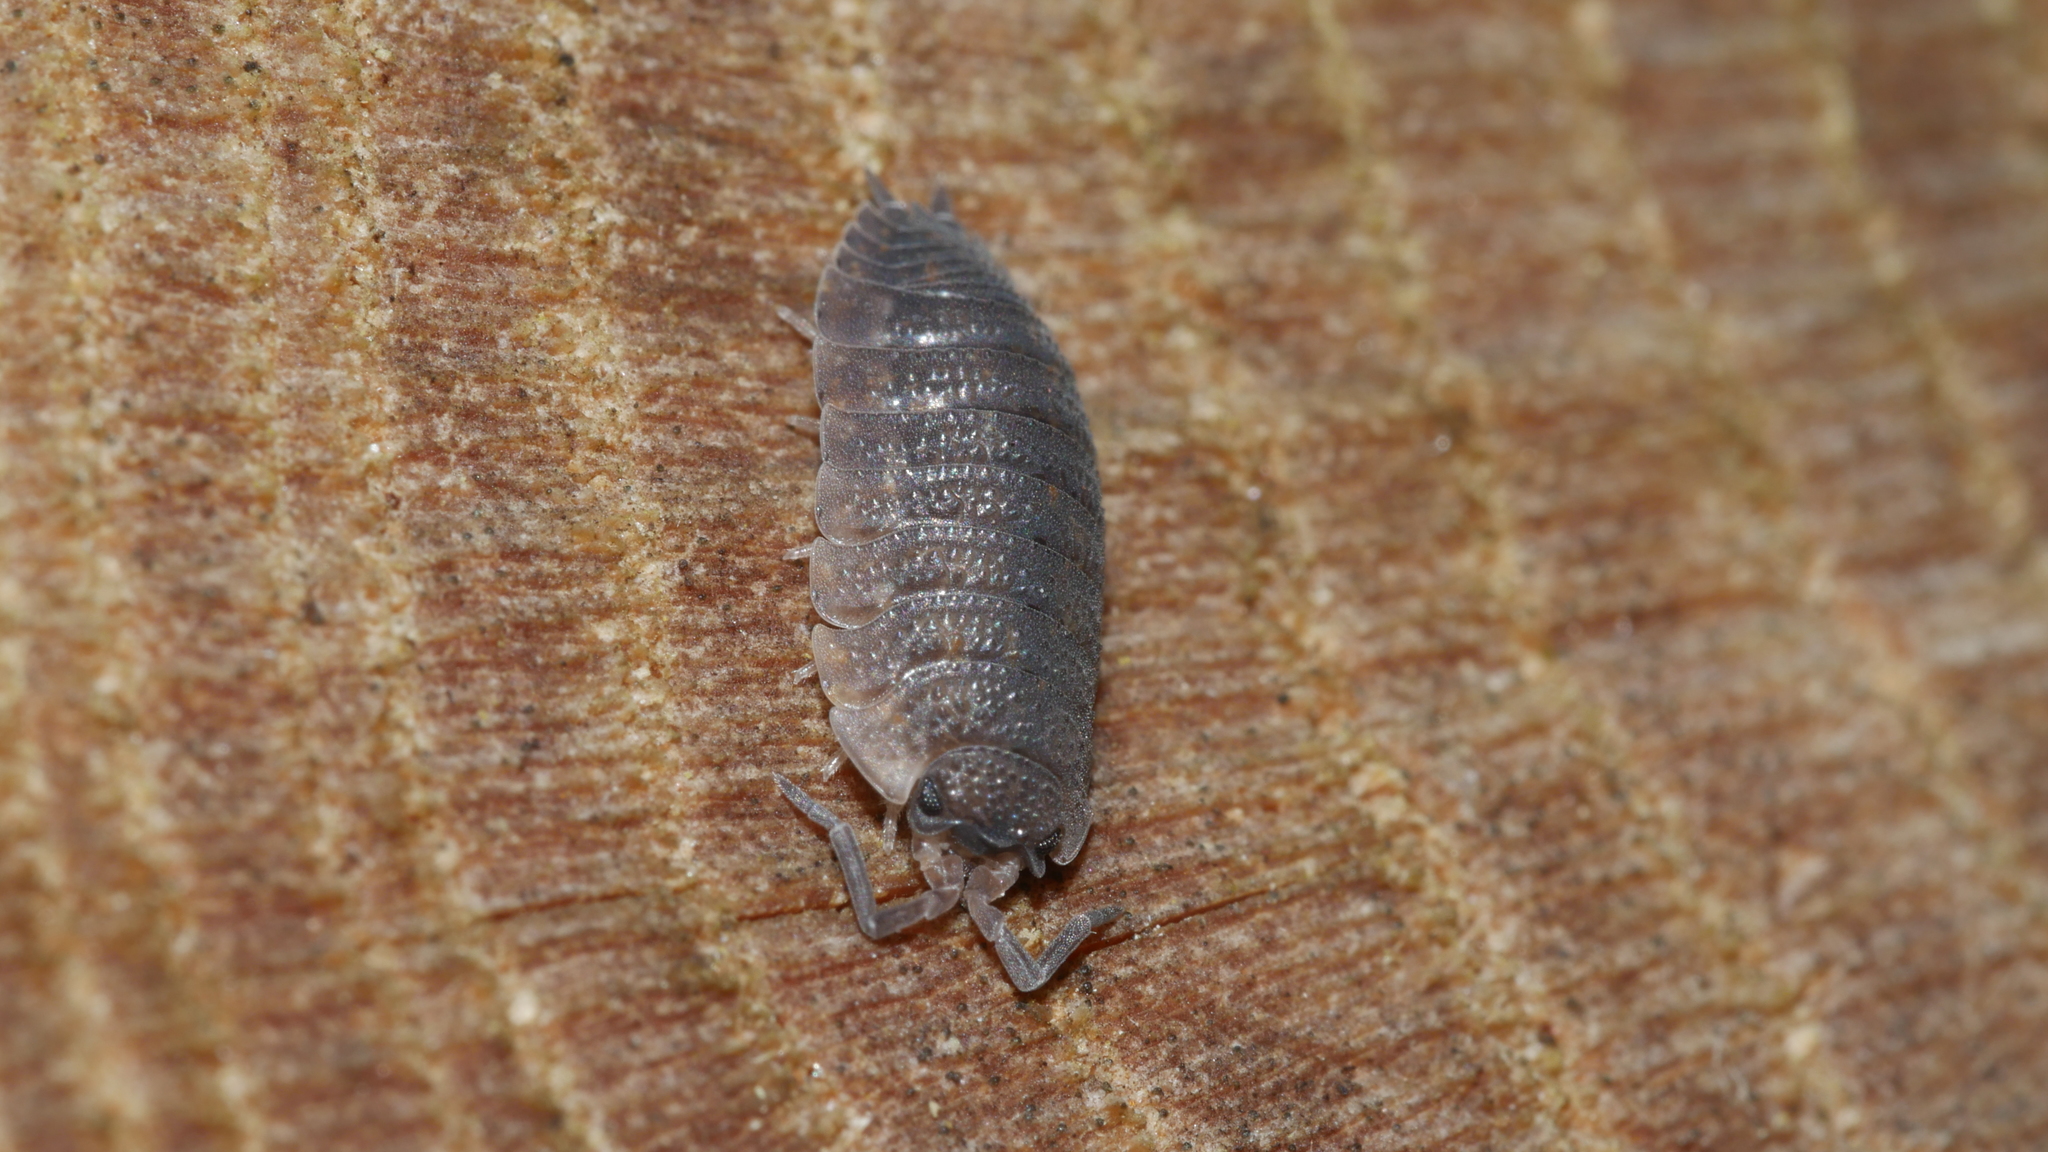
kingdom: Animalia
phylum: Arthropoda
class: Malacostraca
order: Isopoda
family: Porcellionidae
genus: Porcellio
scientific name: Porcellio scaber
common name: Common rough woodlouse
